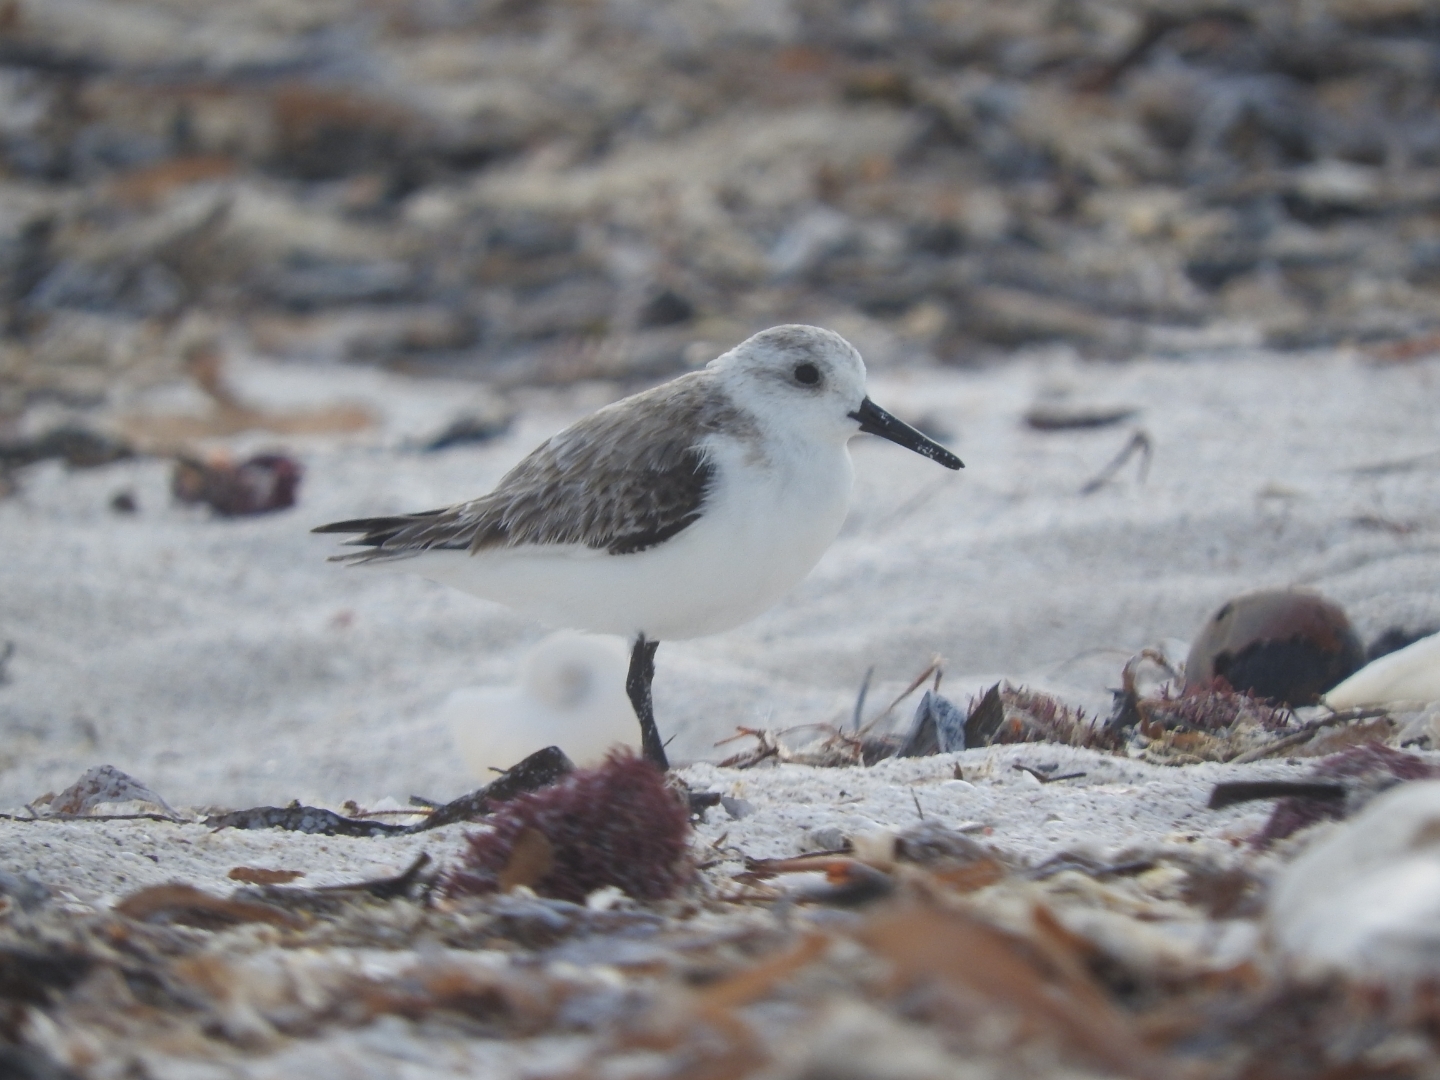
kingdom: Animalia
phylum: Chordata
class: Aves
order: Charadriiformes
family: Scolopacidae
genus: Calidris
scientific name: Calidris alba
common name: Sanderling
